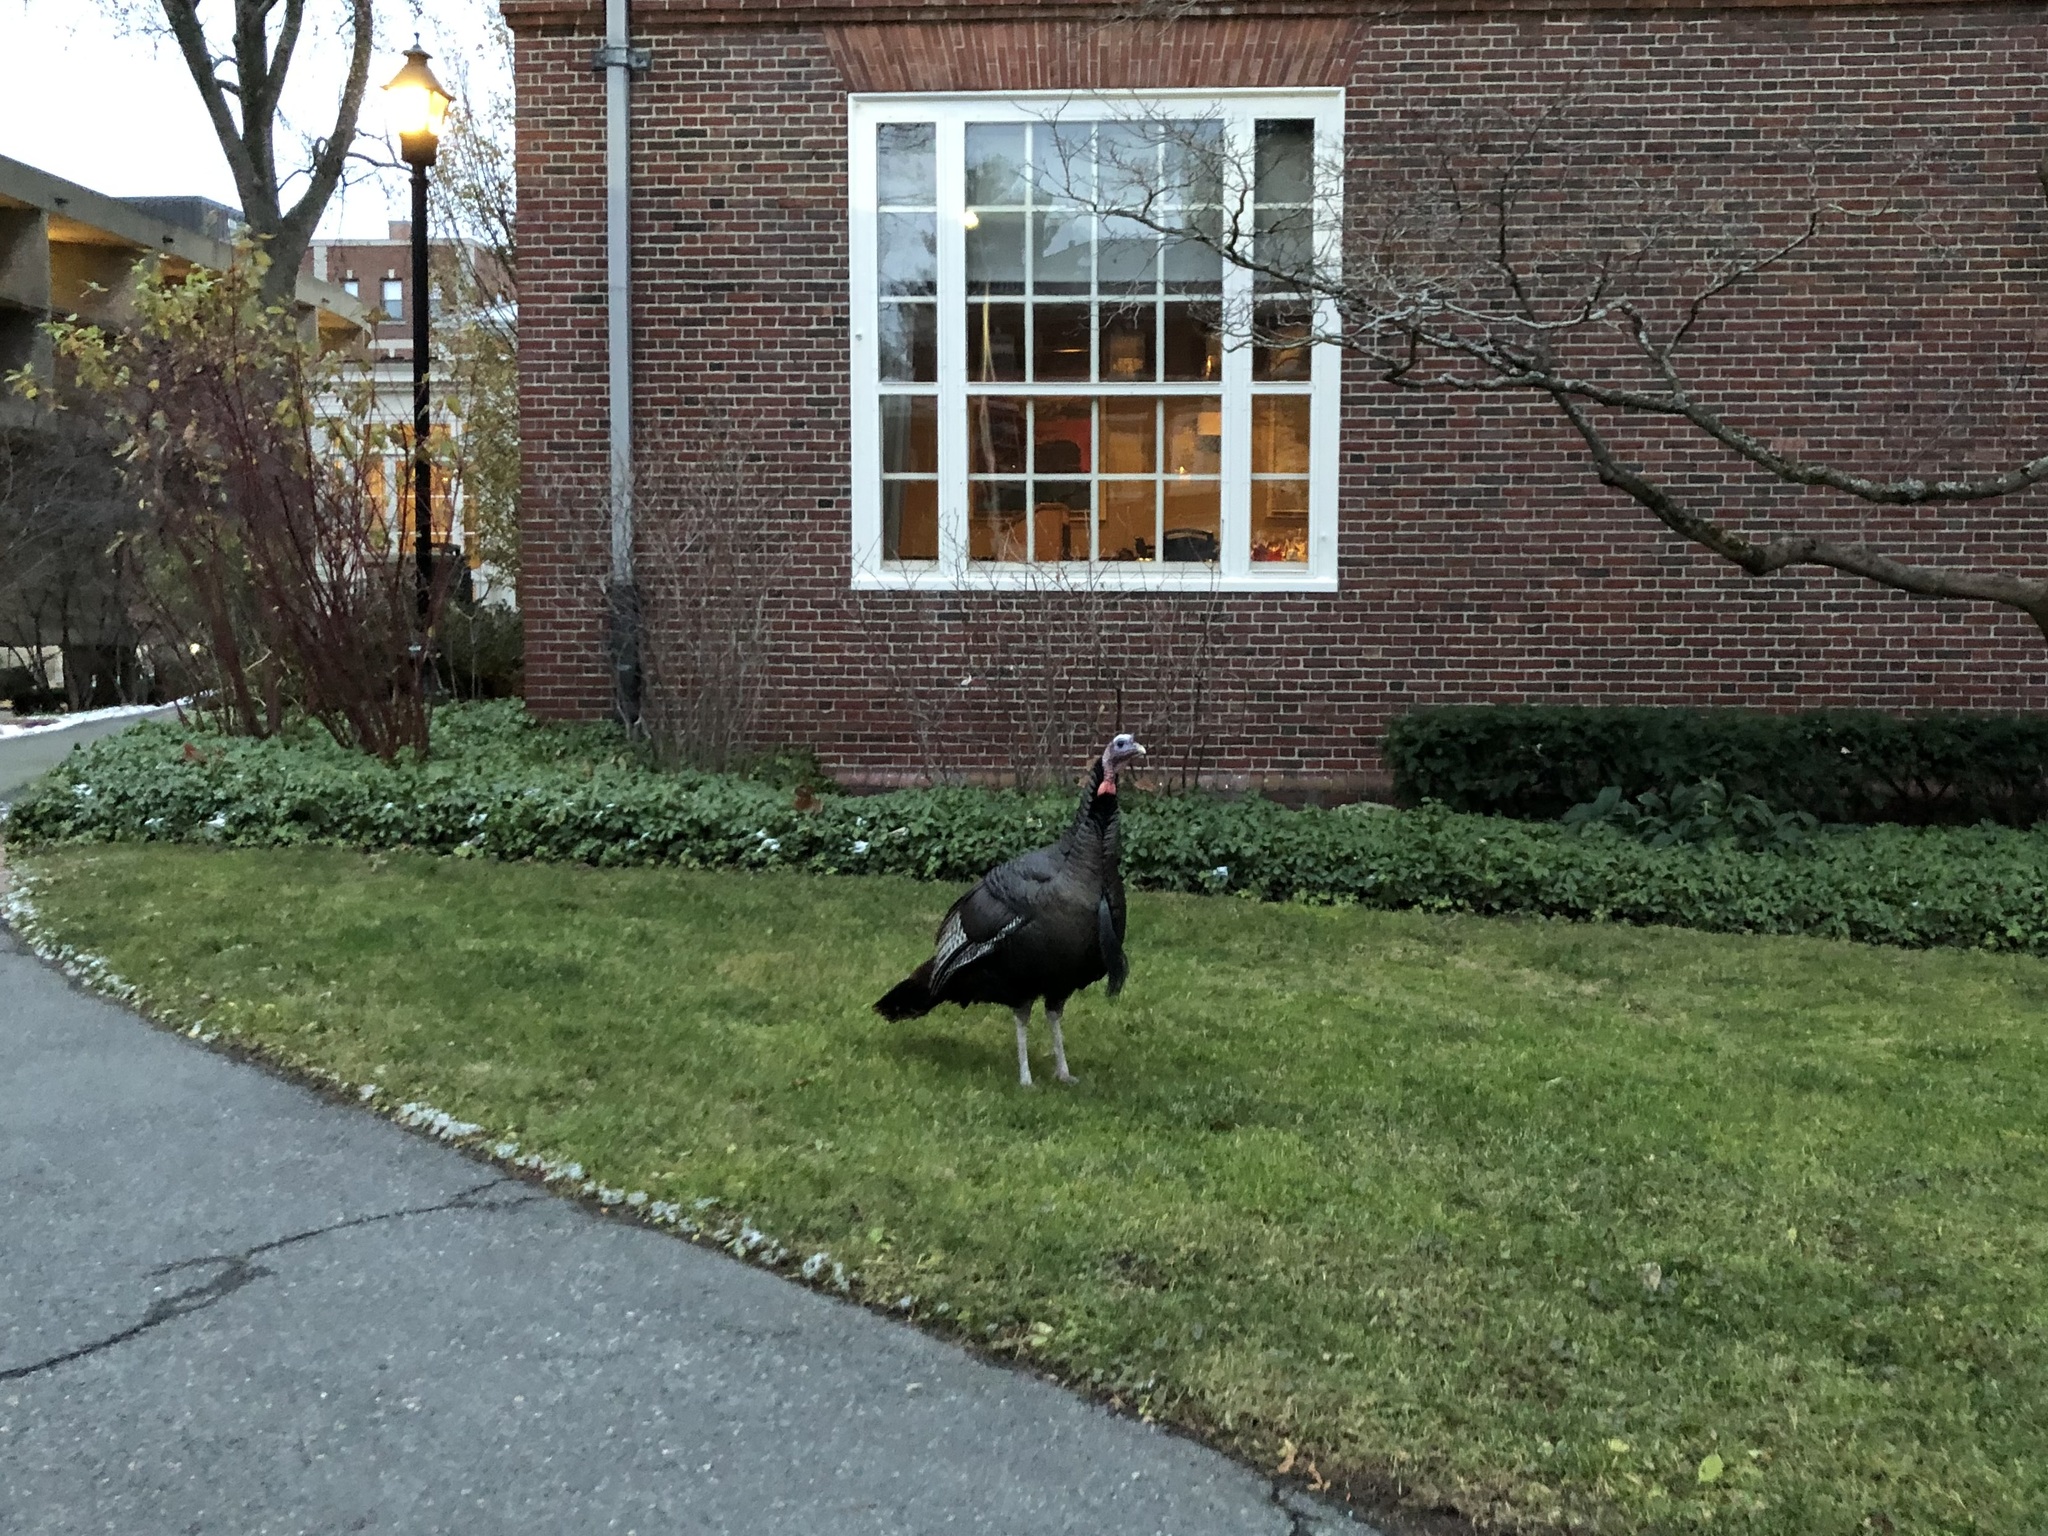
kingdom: Animalia
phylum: Chordata
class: Aves
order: Galliformes
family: Phasianidae
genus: Meleagris
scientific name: Meleagris gallopavo
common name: Wild turkey
